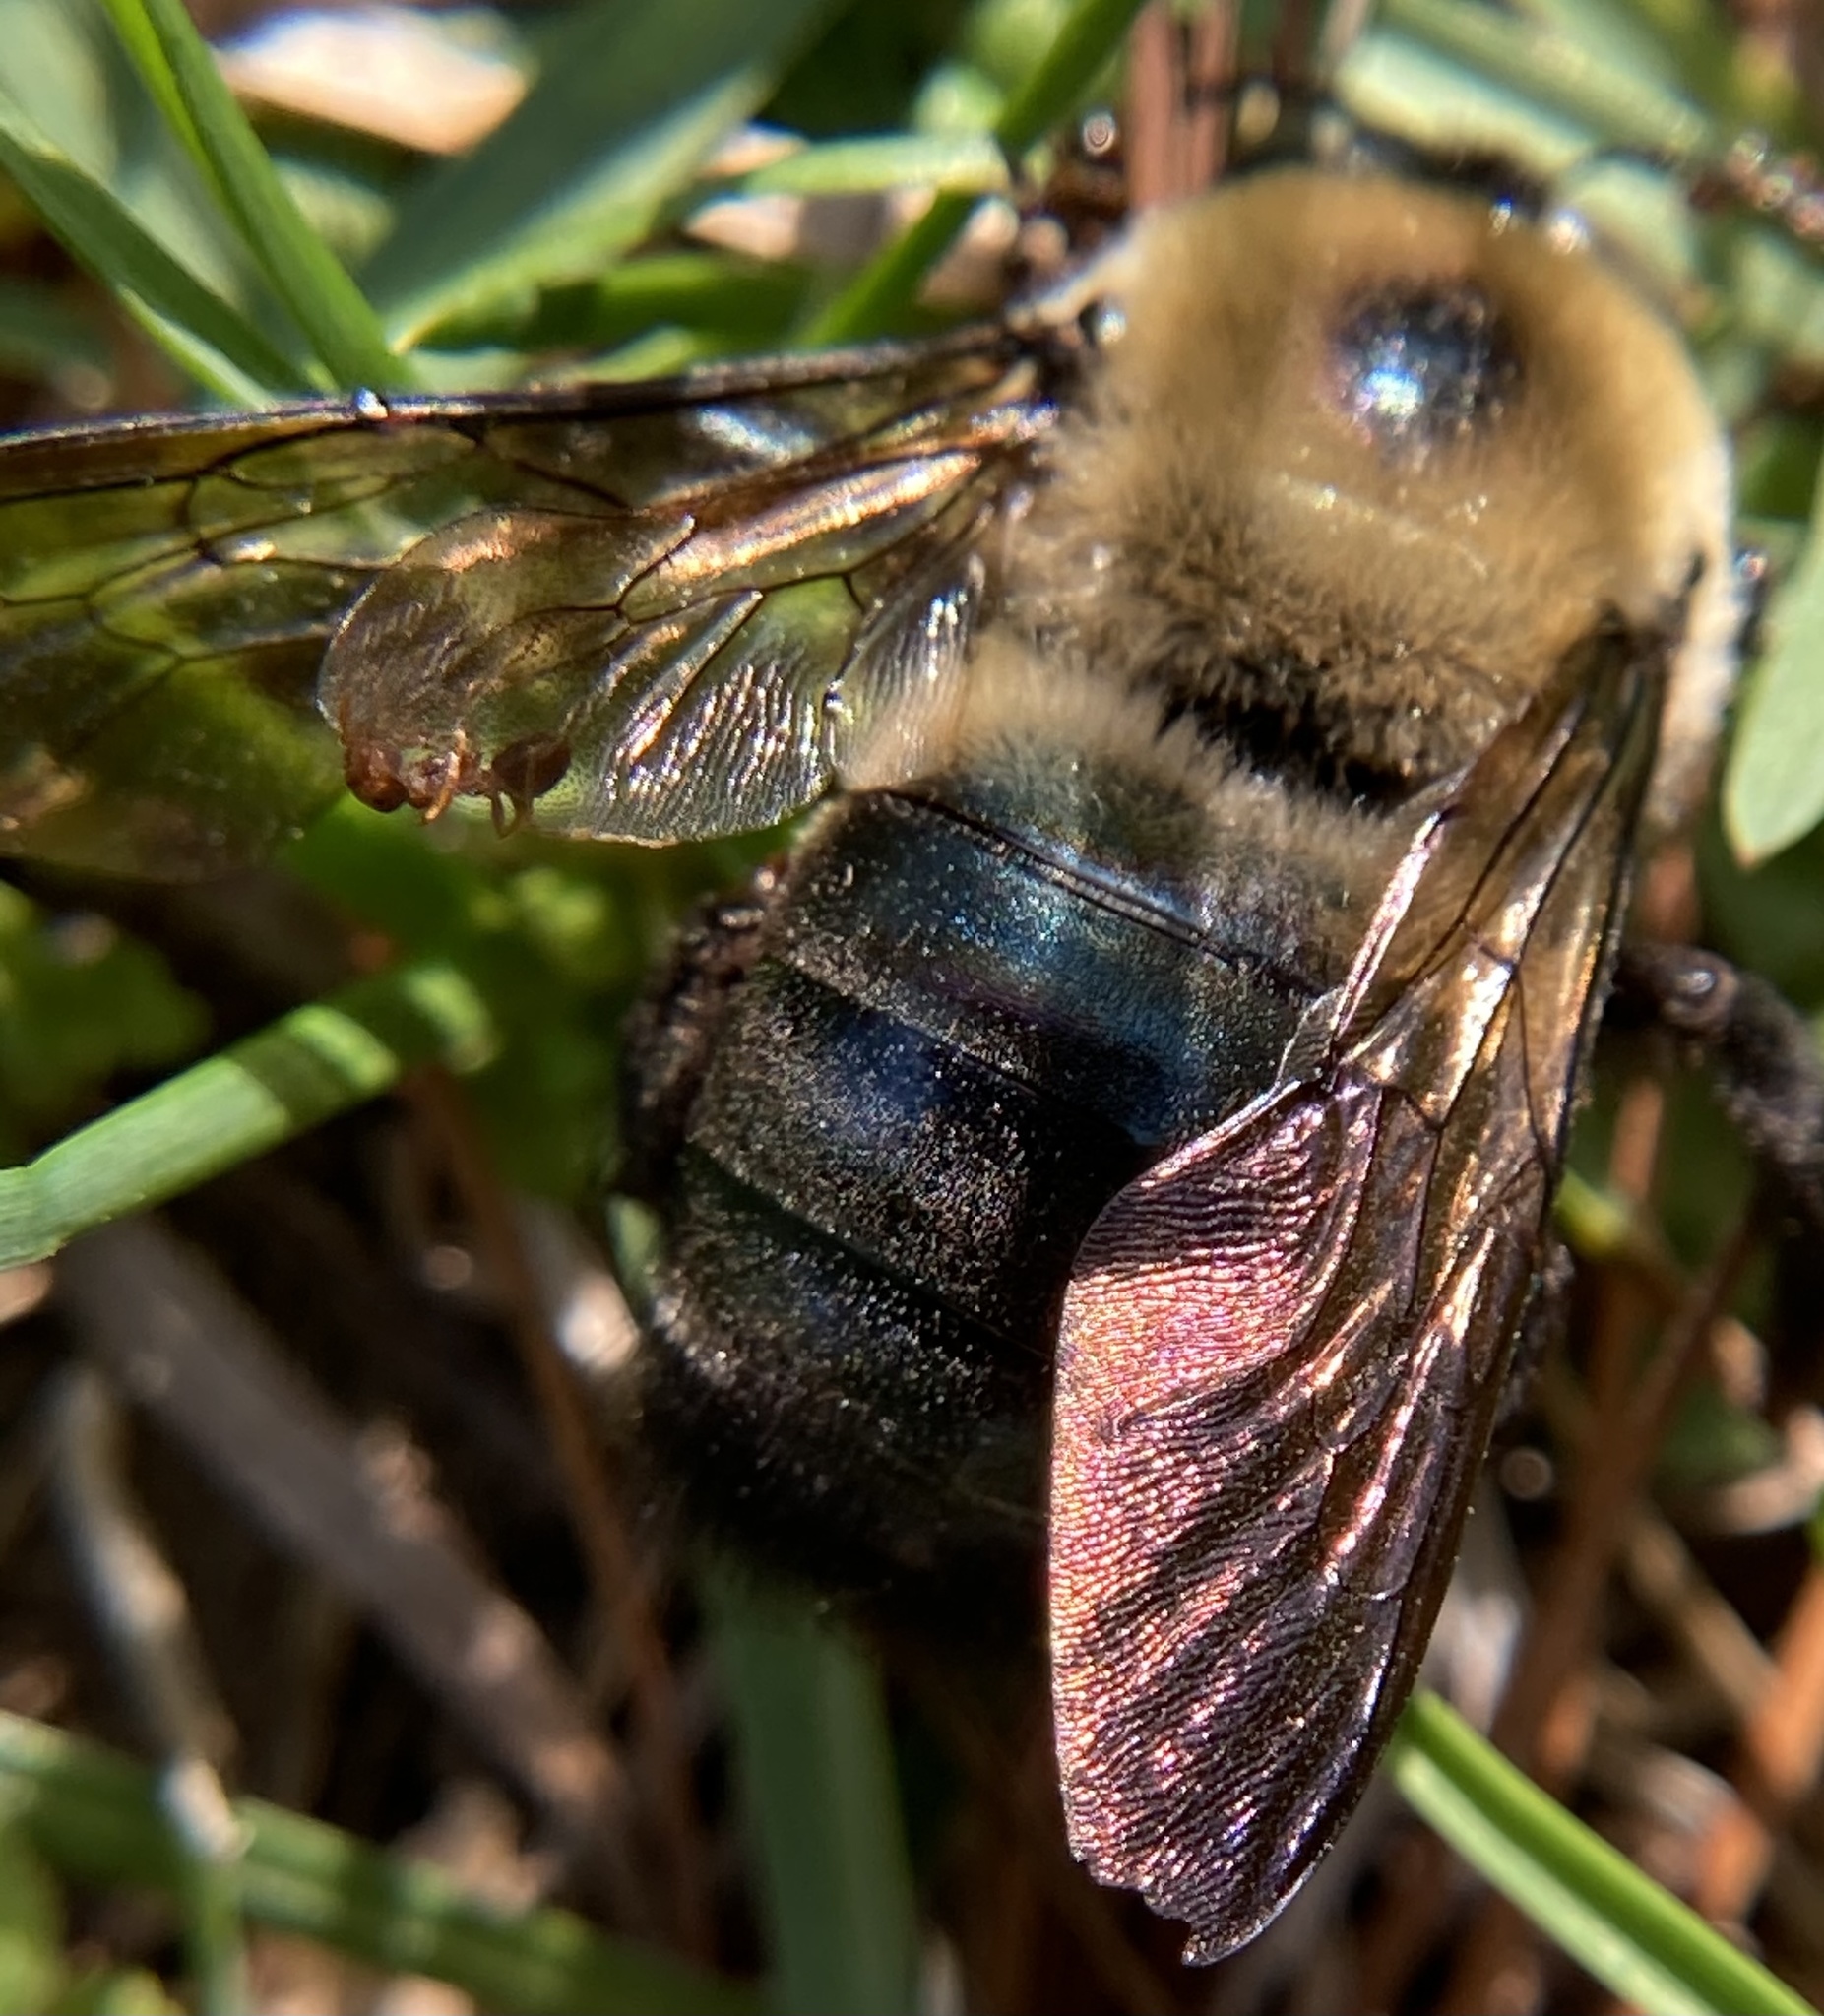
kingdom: Animalia
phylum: Arthropoda
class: Insecta
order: Hymenoptera
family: Apidae
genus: Xylocopa
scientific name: Xylocopa virginica
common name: Carpenter bee
